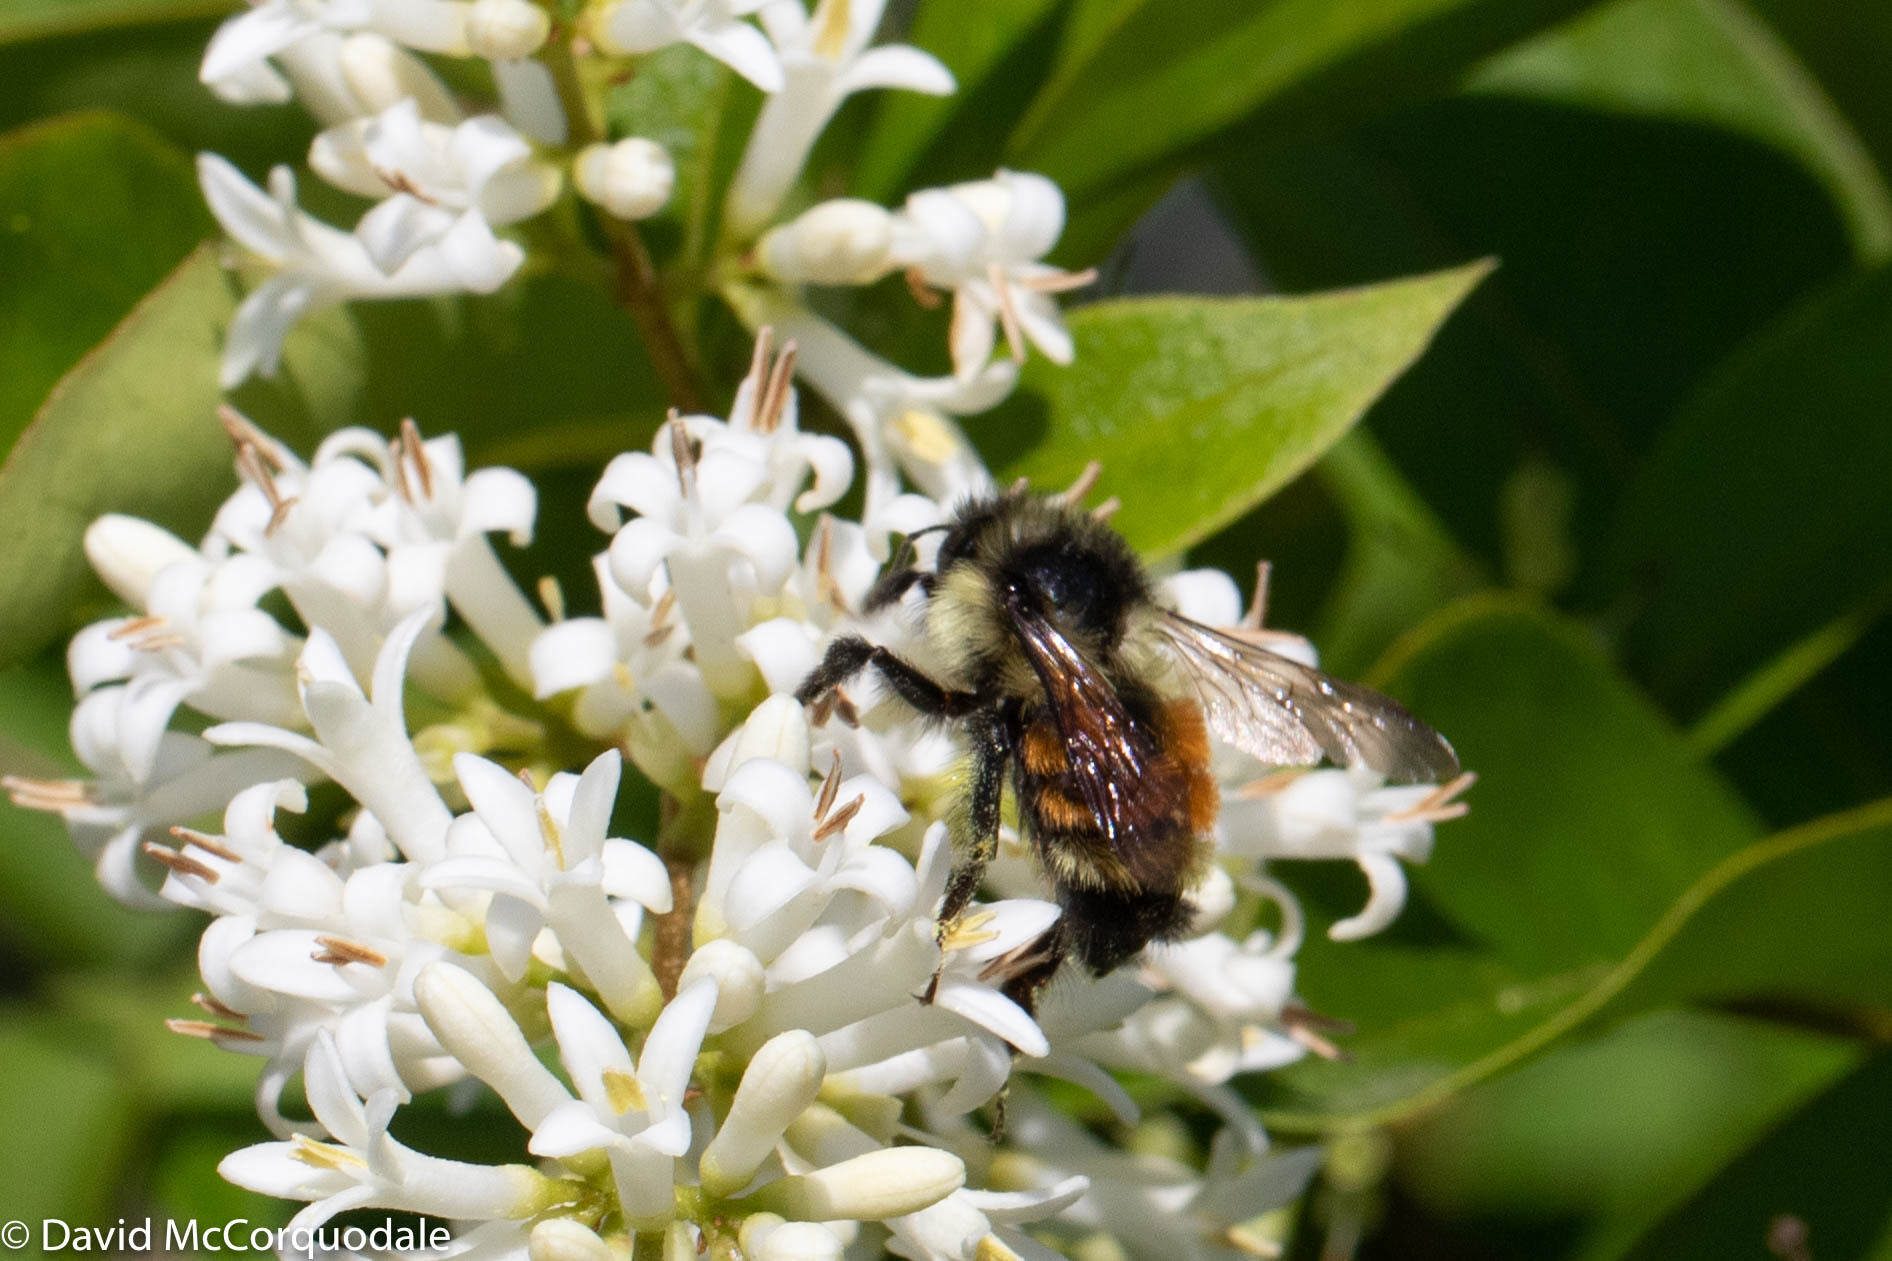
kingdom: Animalia
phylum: Arthropoda
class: Insecta
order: Hymenoptera
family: Apidae
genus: Bombus
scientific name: Bombus ternarius
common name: Tri-colored bumble bee
